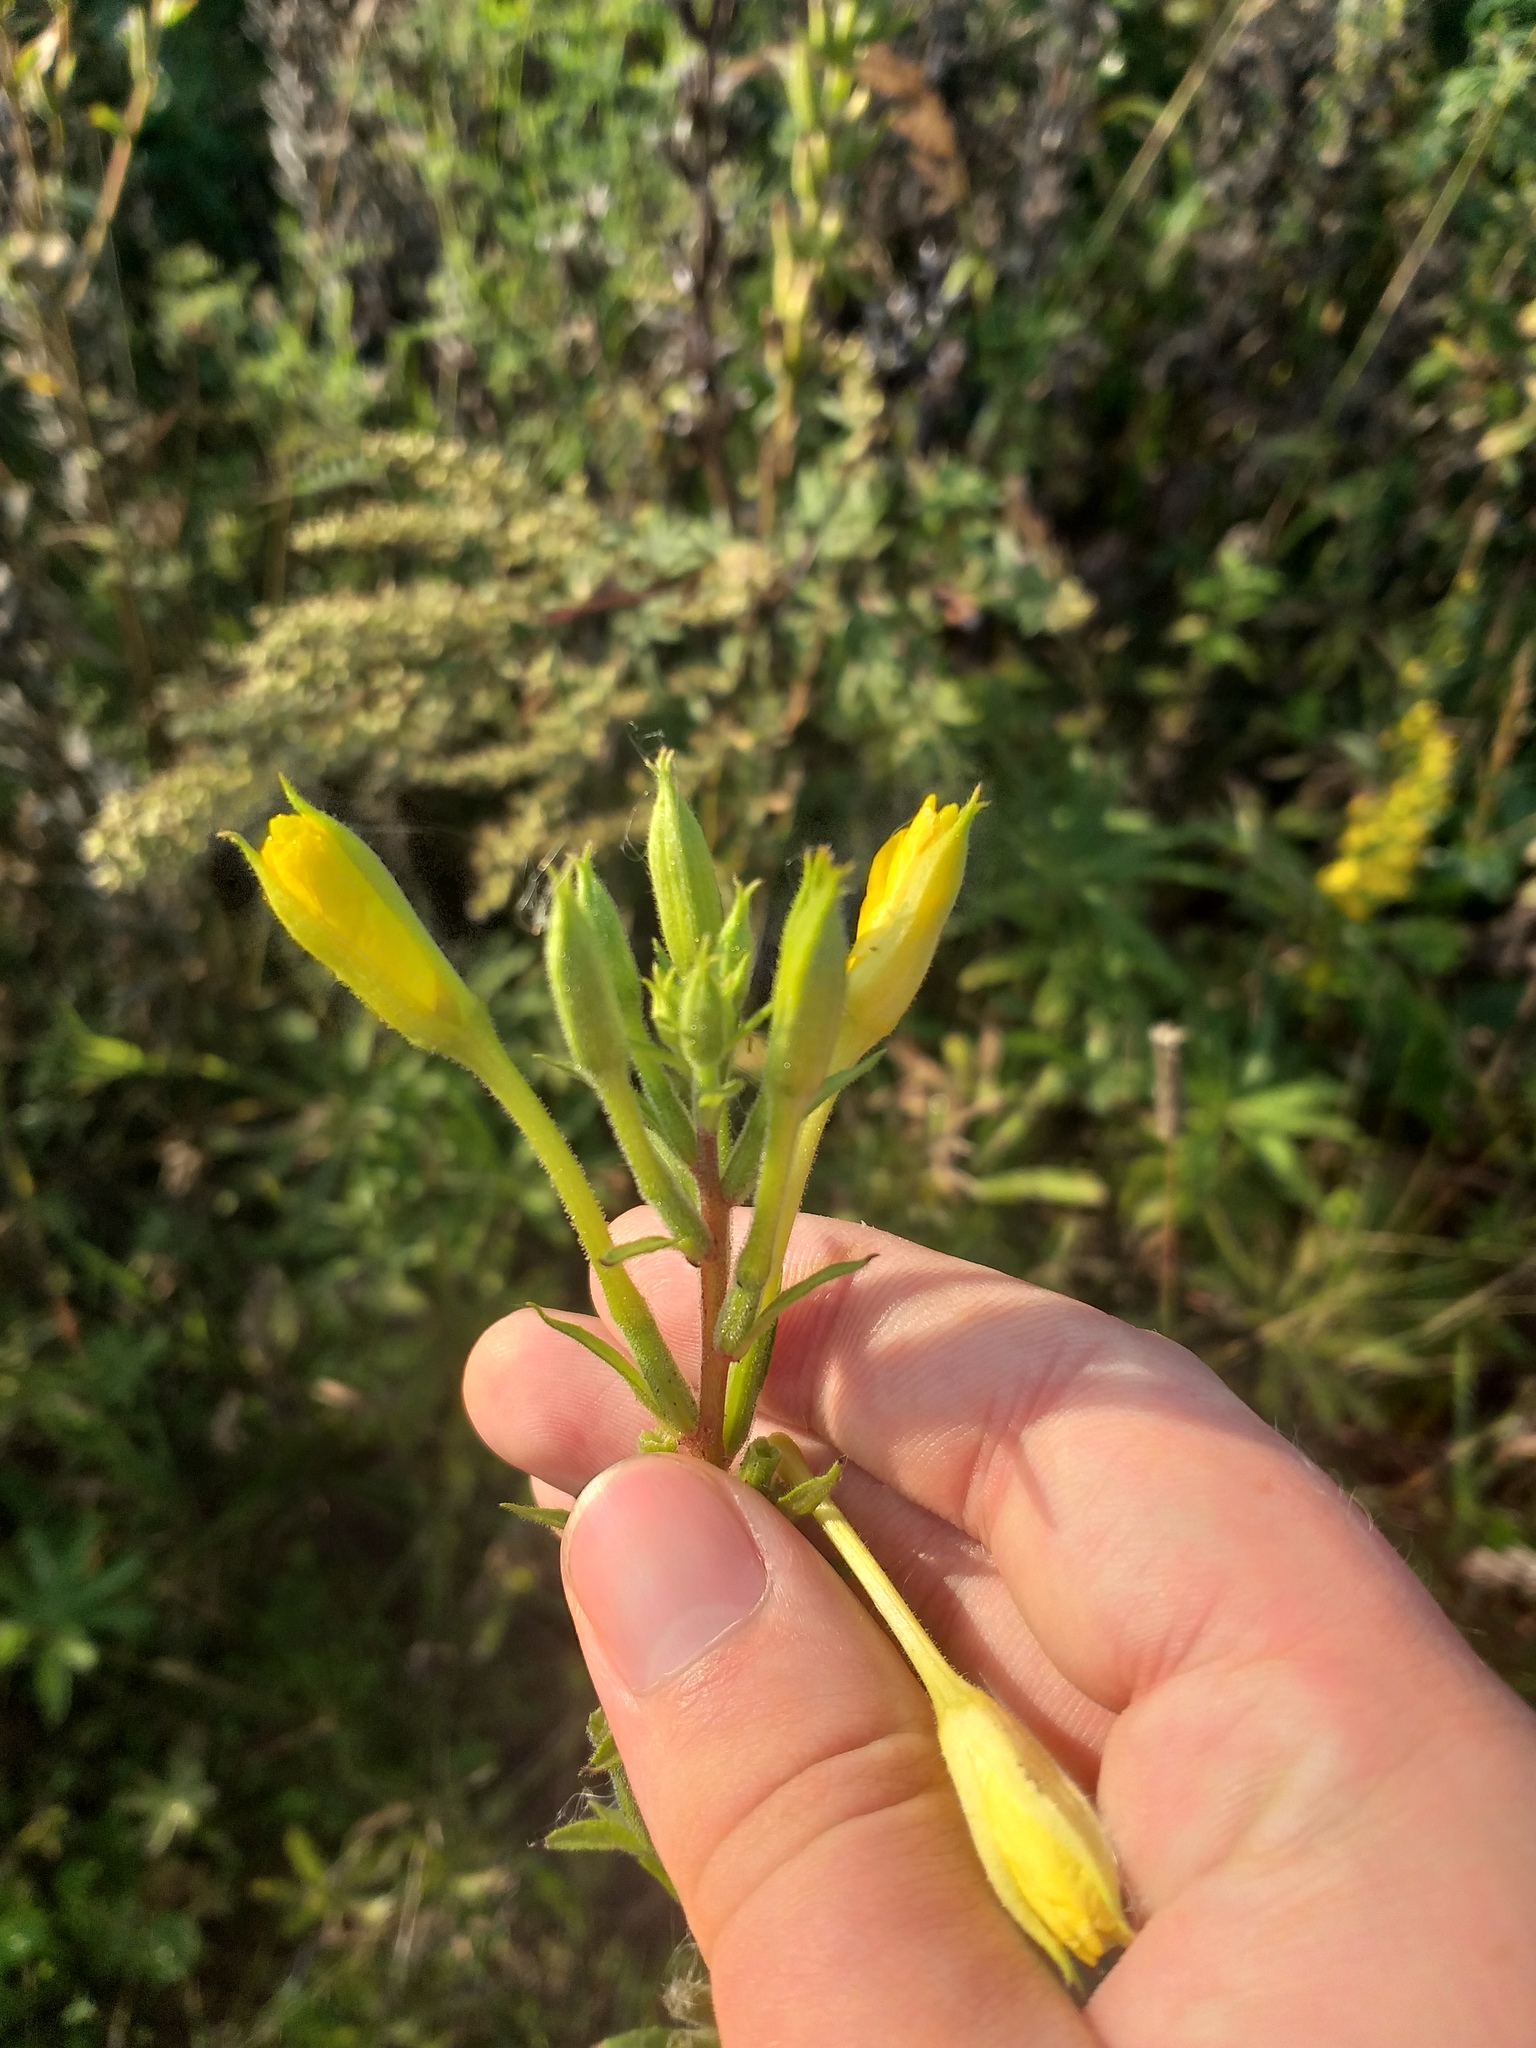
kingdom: Plantae
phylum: Tracheophyta
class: Magnoliopsida
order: Myrtales
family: Onagraceae
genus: Oenothera
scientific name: Oenothera rubricaulis
